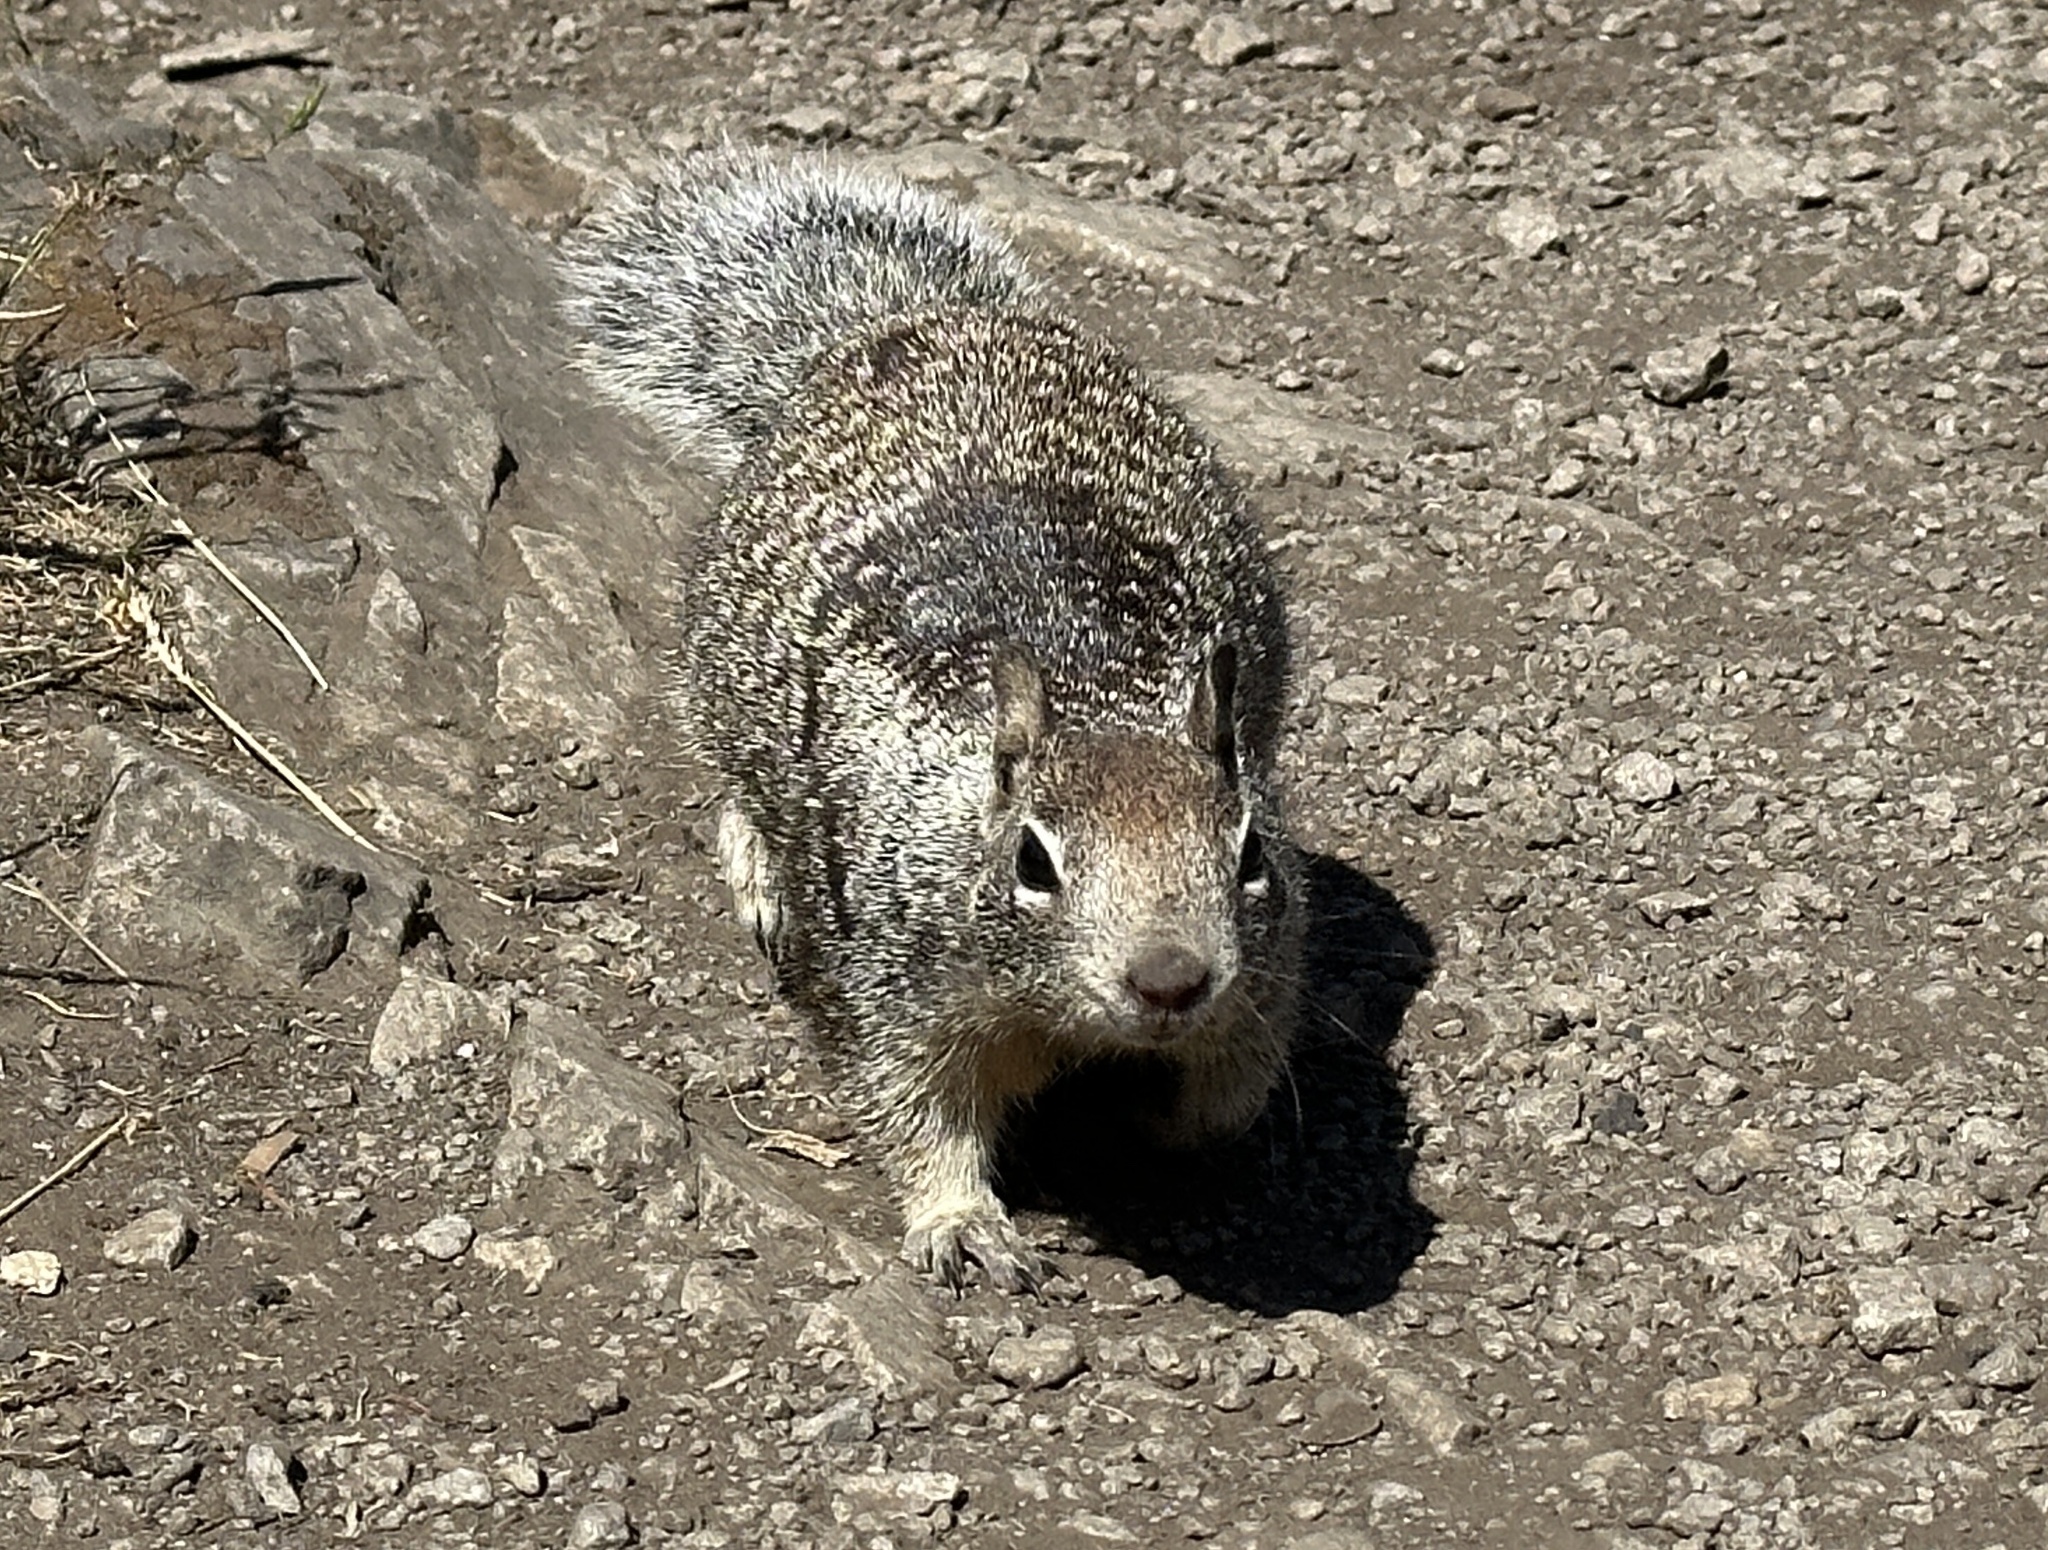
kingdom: Animalia
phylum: Chordata
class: Mammalia
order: Rodentia
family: Sciuridae
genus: Otospermophilus
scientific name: Otospermophilus beecheyi
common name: California ground squirrel
